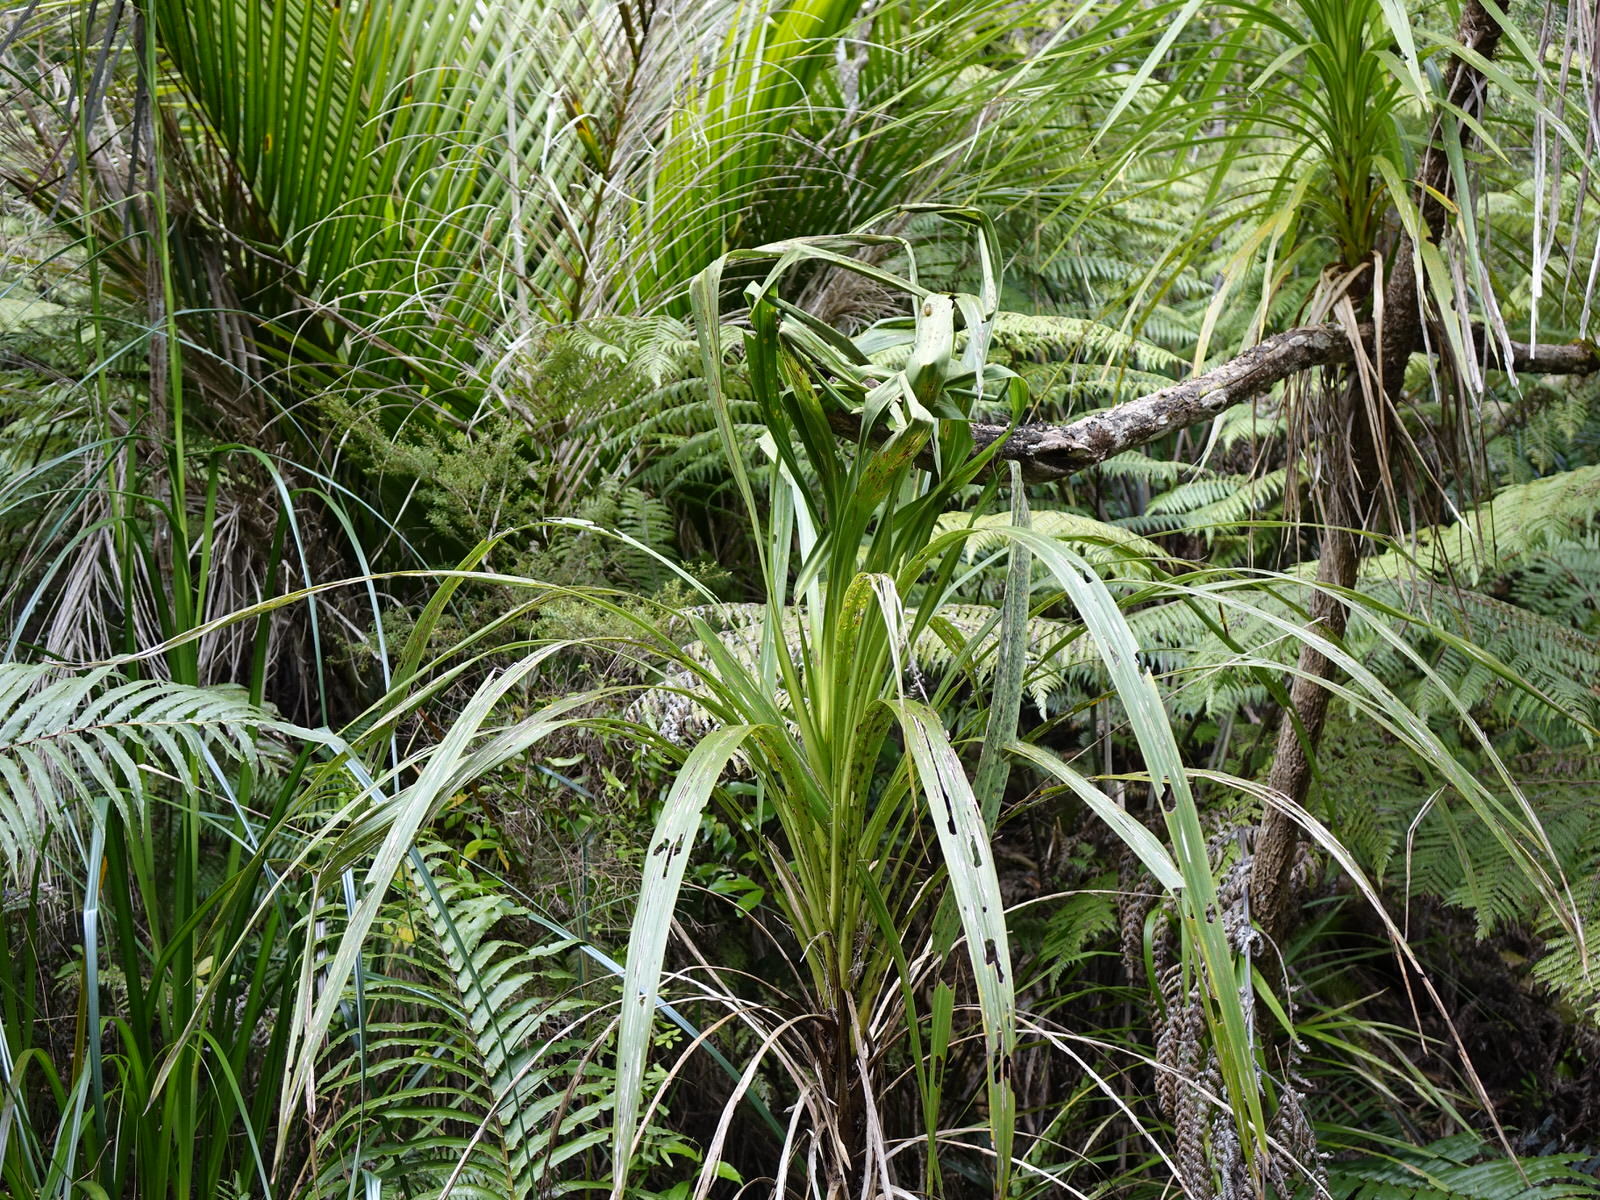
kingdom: Plantae
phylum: Tracheophyta
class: Liliopsida
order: Asparagales
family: Asparagaceae
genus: Cordyline
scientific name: Cordyline banksii
